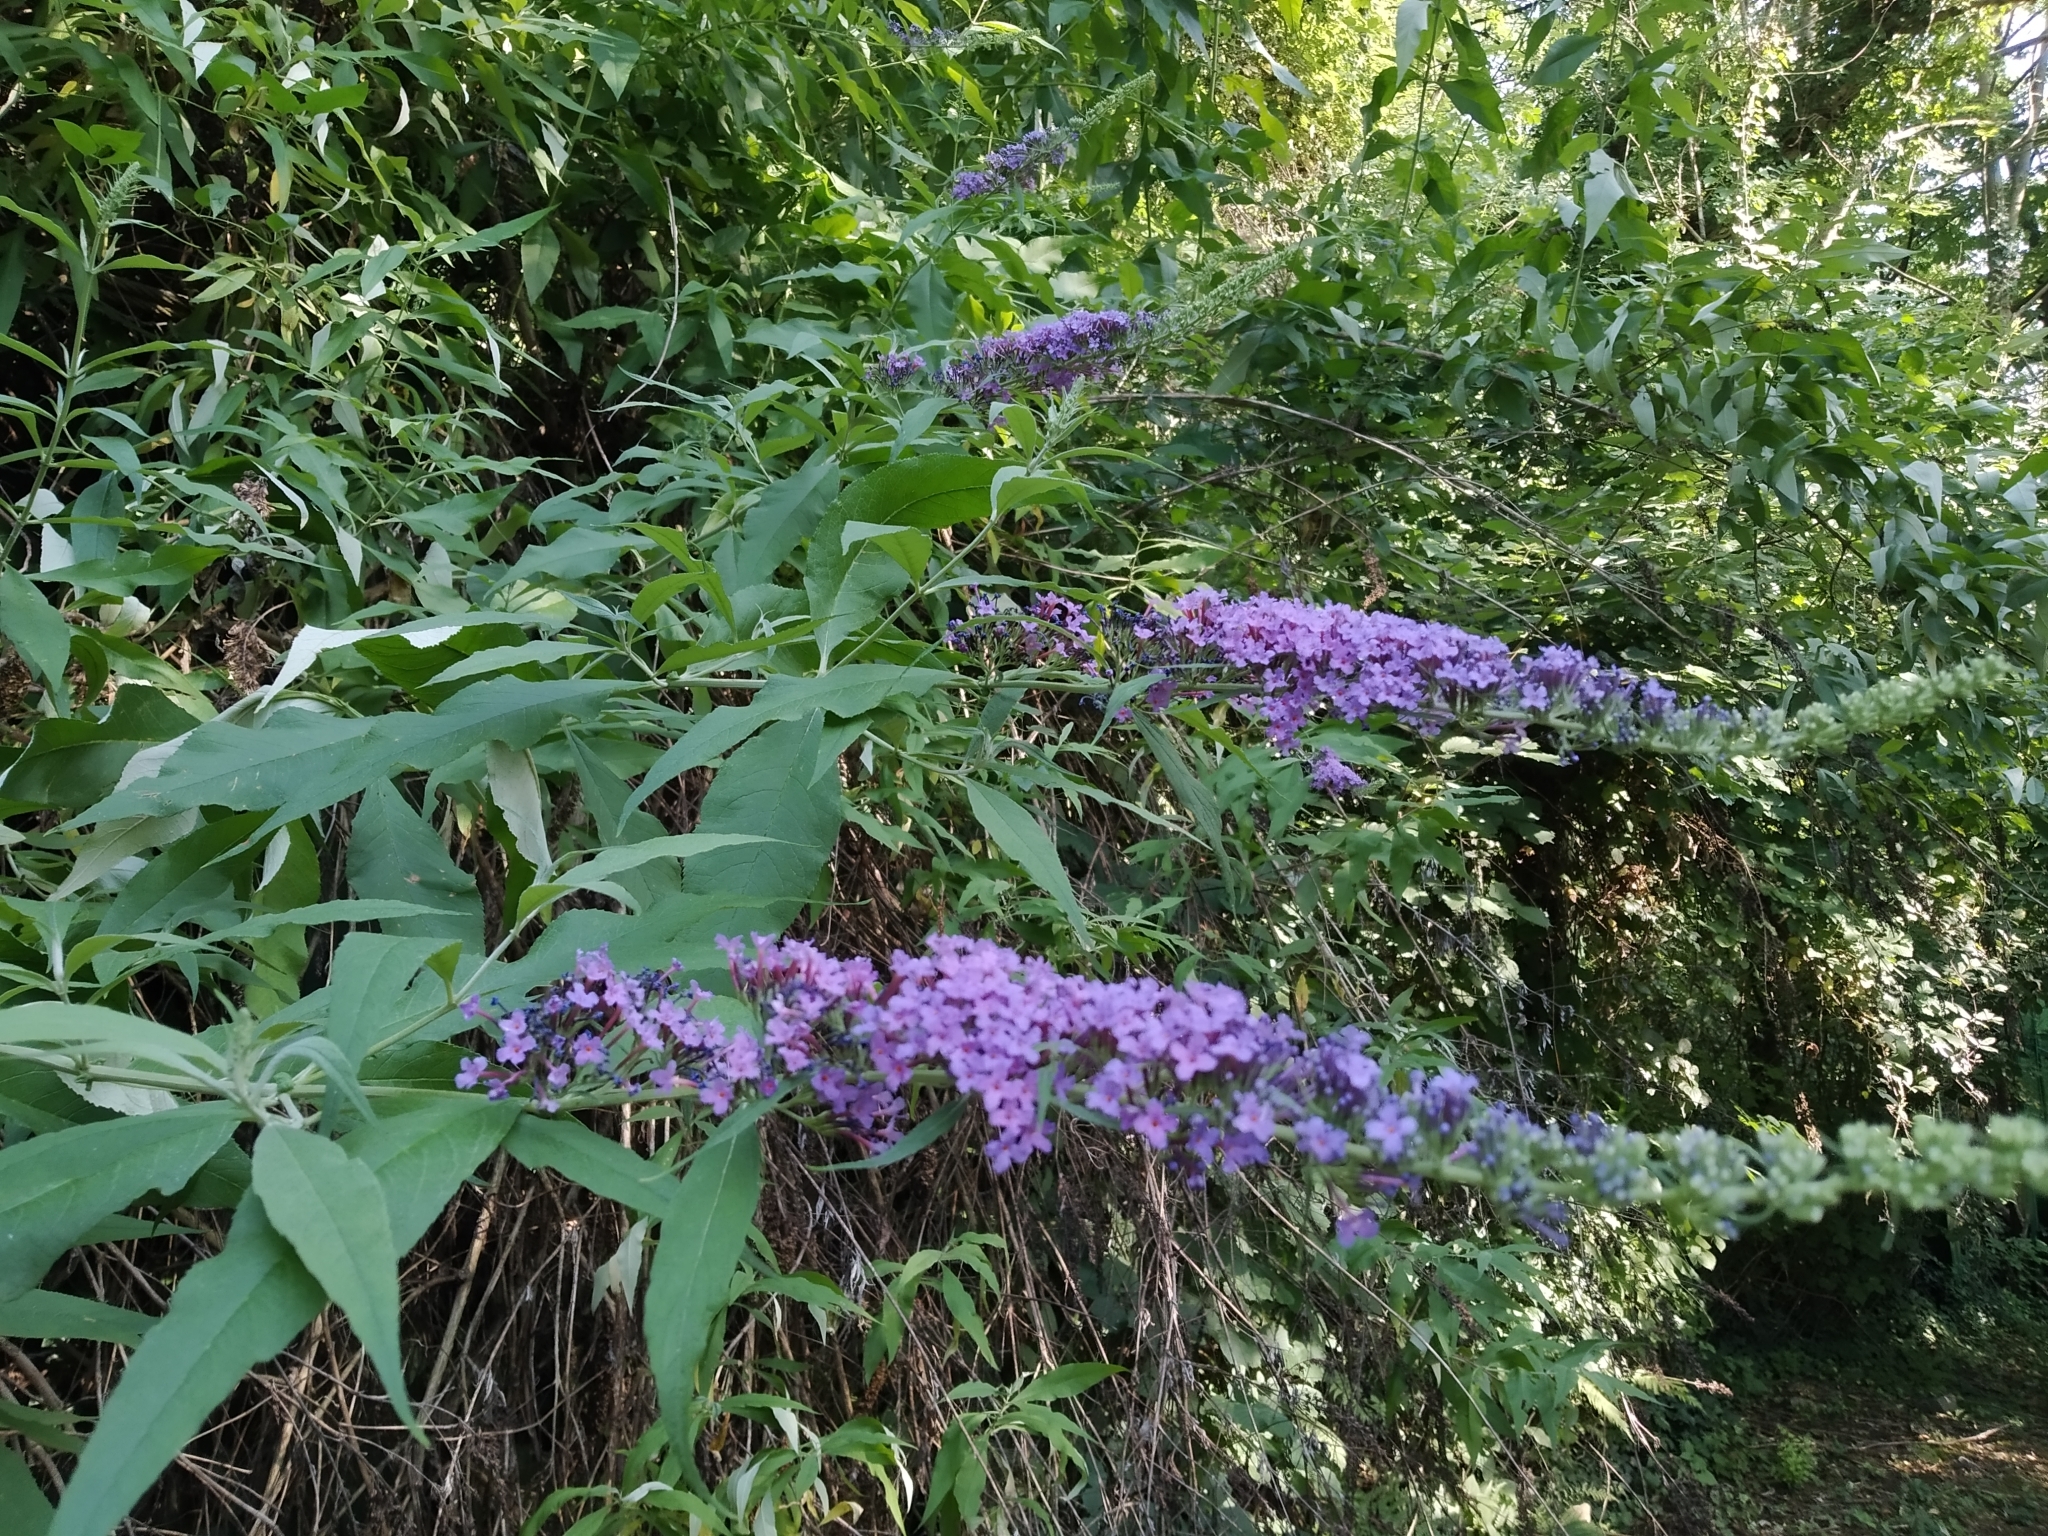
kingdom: Plantae
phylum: Tracheophyta
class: Magnoliopsida
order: Lamiales
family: Scrophulariaceae
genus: Buddleja
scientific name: Buddleja davidii
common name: Butterfly-bush
